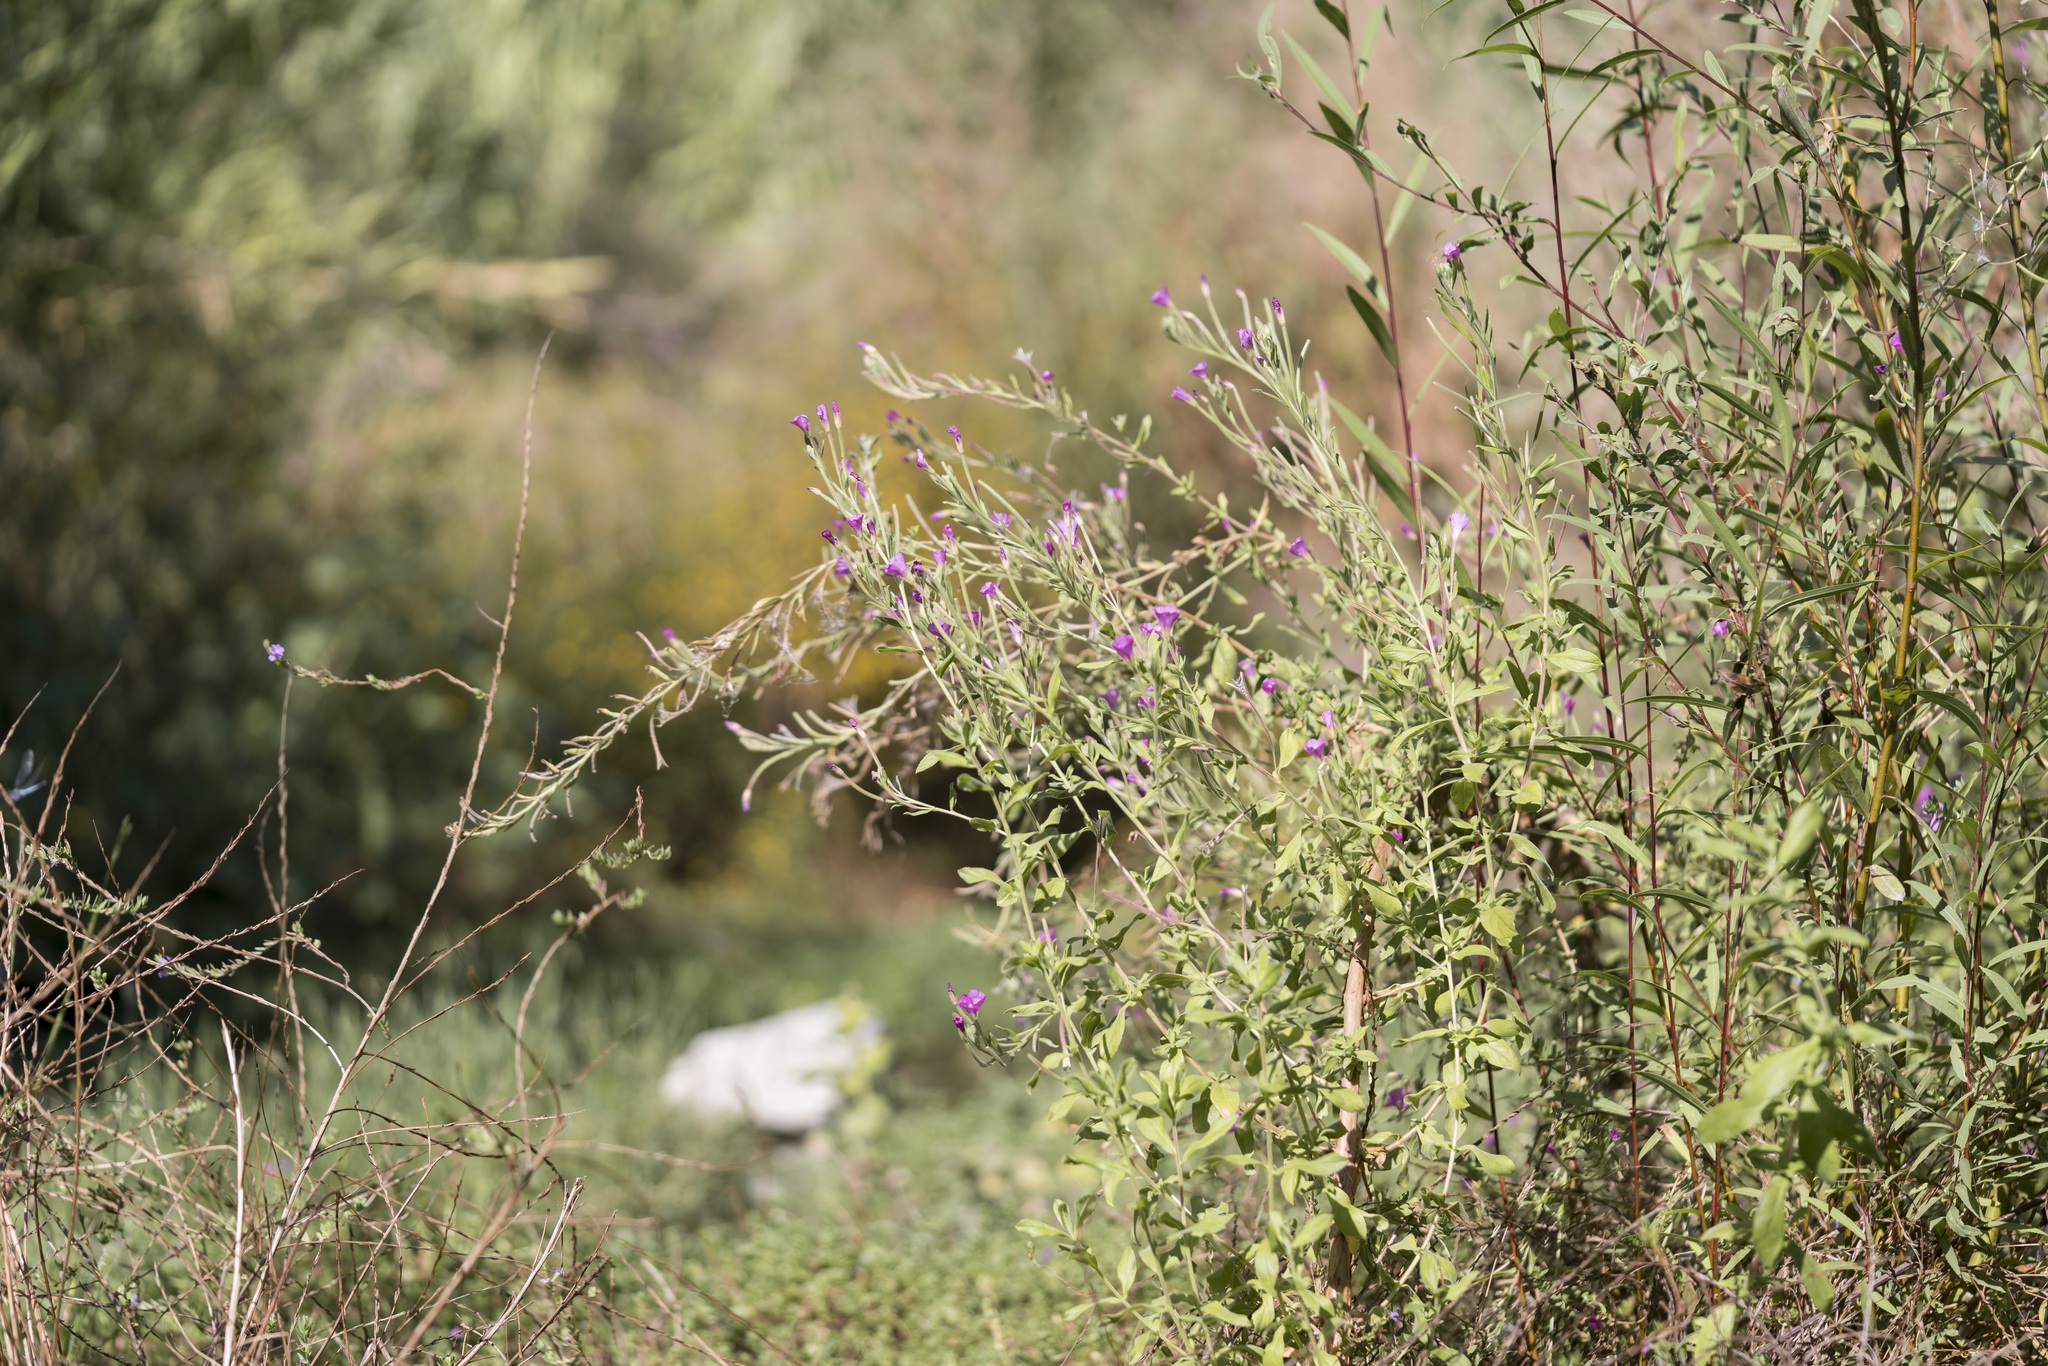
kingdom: Plantae
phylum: Tracheophyta
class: Magnoliopsida
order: Myrtales
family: Onagraceae
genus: Epilobium
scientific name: Epilobium hirsutum
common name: Great willowherb
